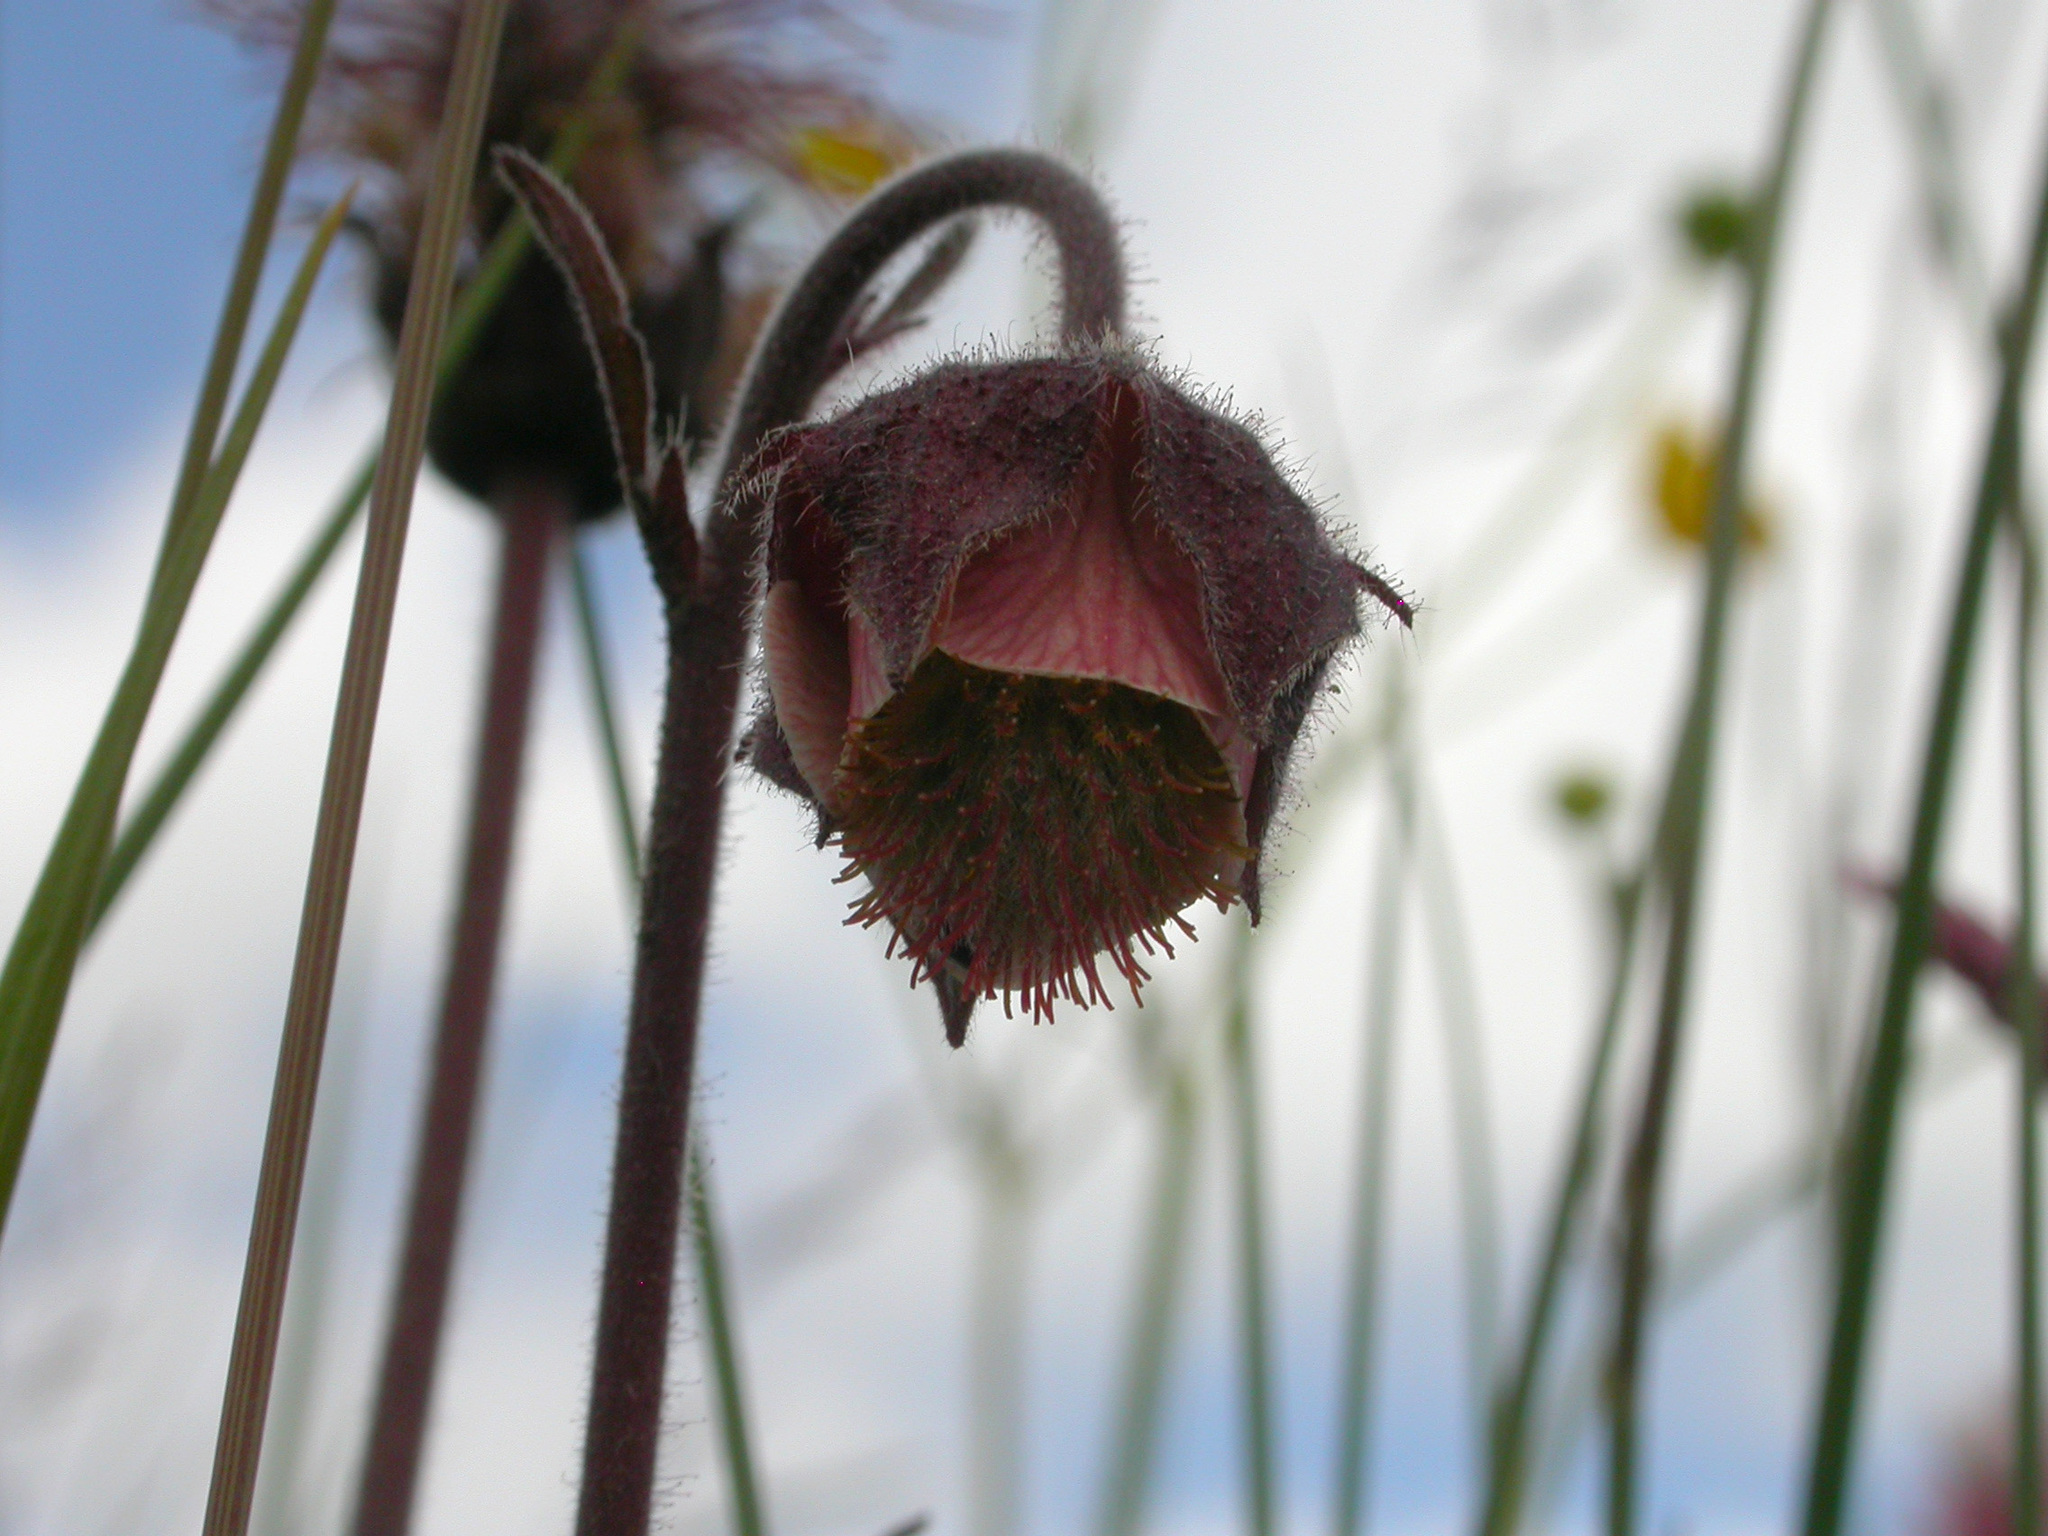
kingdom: Plantae
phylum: Tracheophyta
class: Magnoliopsida
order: Rosales
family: Rosaceae
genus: Geum
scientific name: Geum rivale
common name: Water avens
